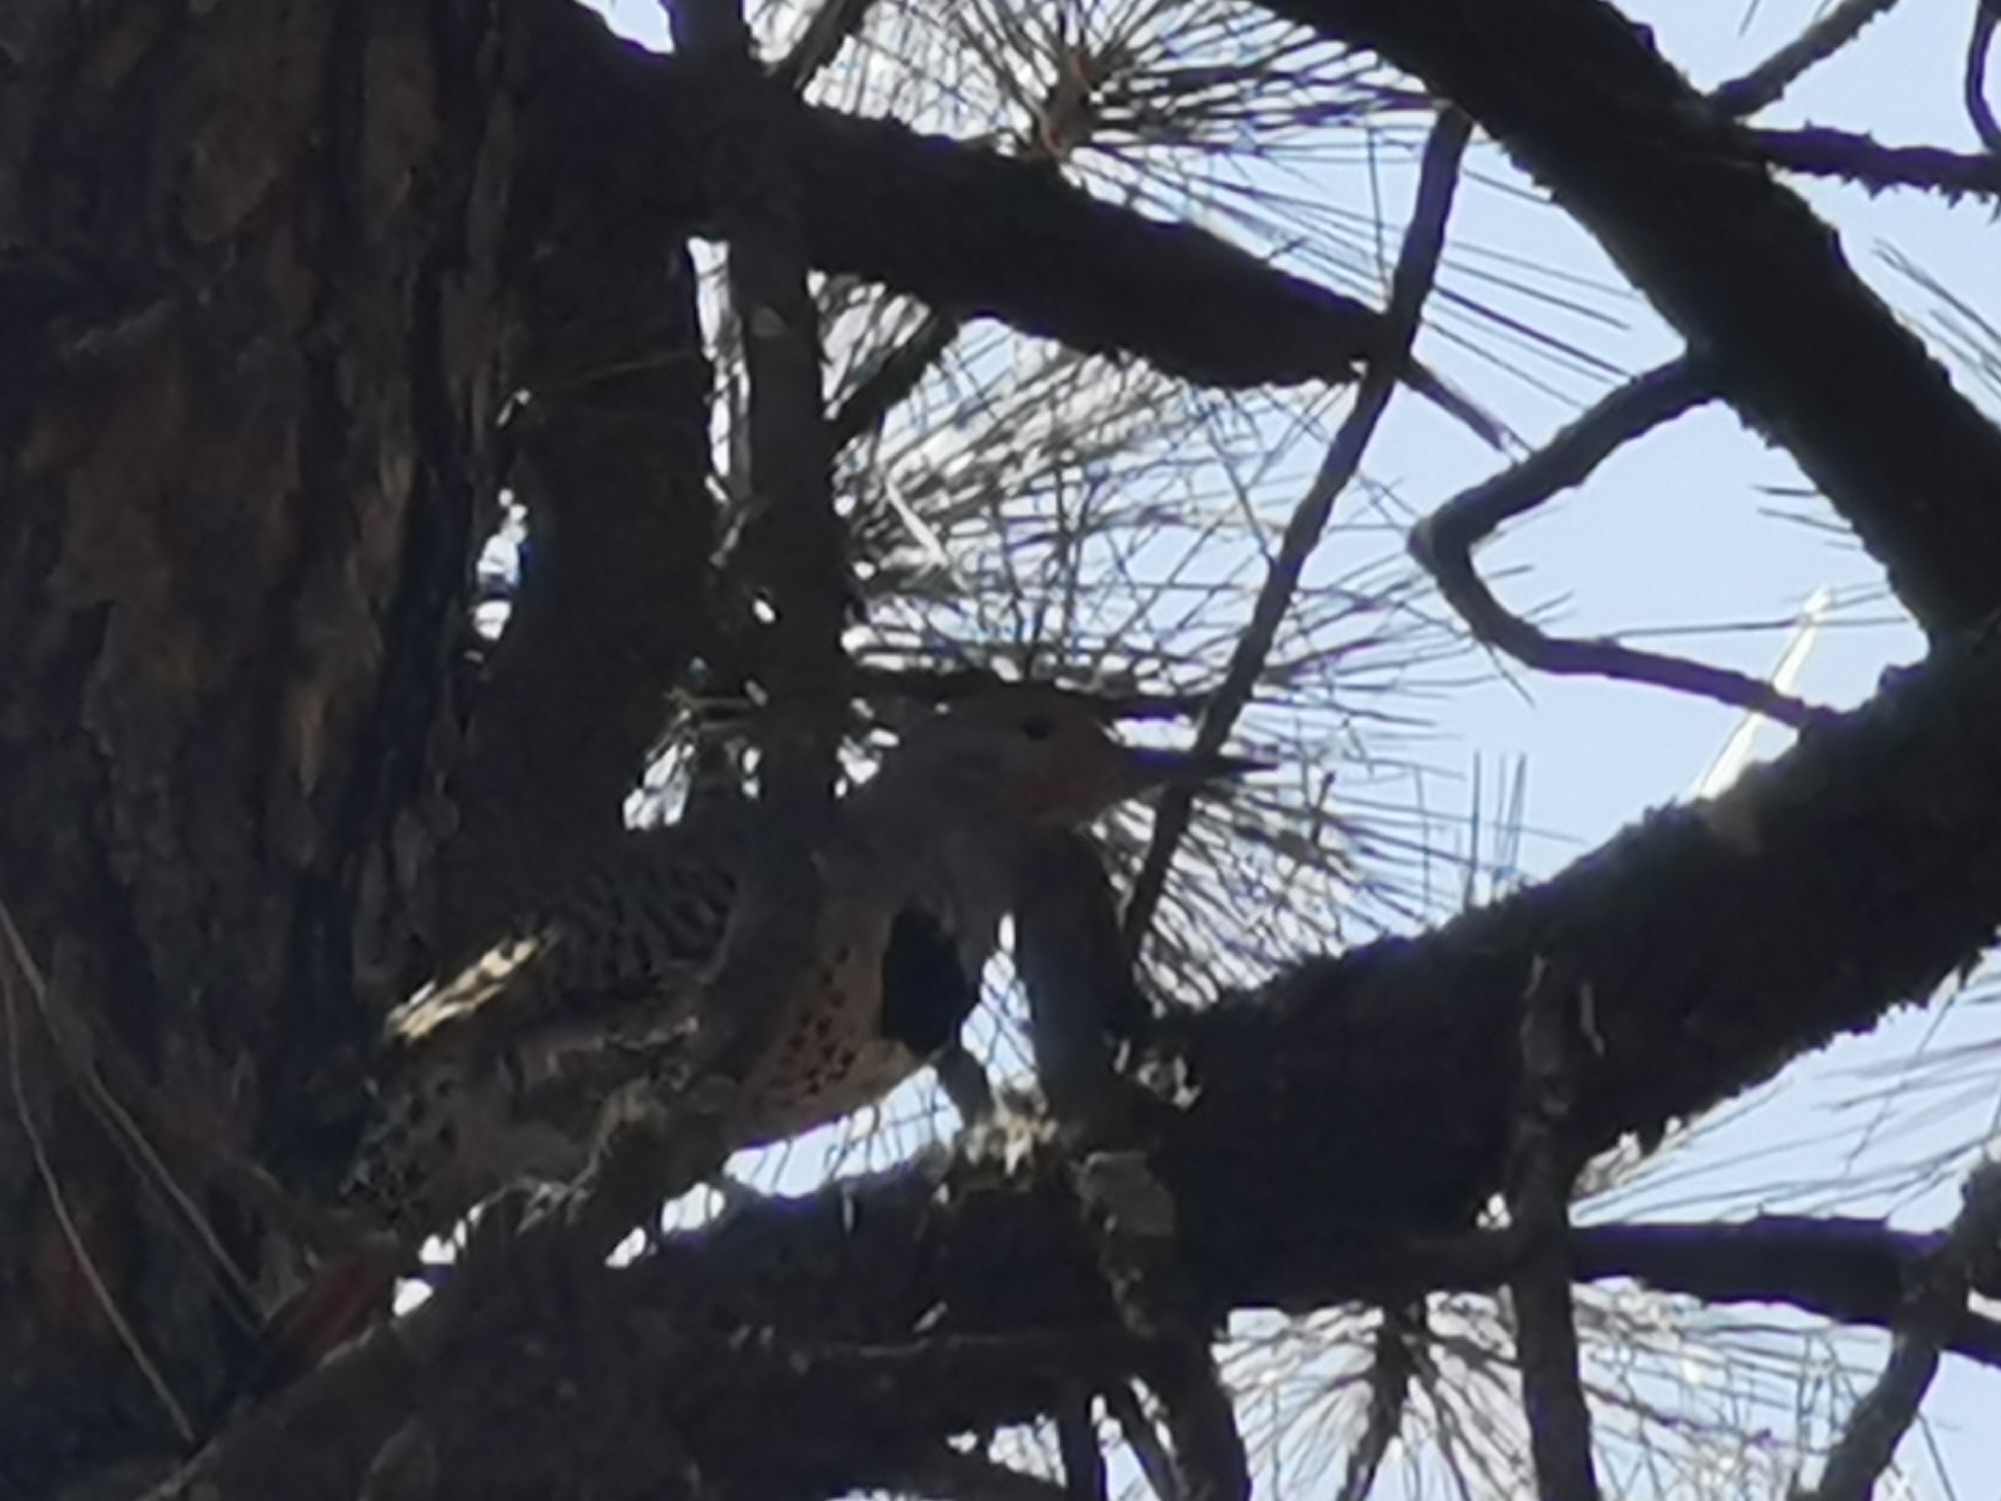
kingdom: Animalia
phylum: Chordata
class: Aves
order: Piciformes
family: Picidae
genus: Colaptes
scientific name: Colaptes auratus
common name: Northern flicker
